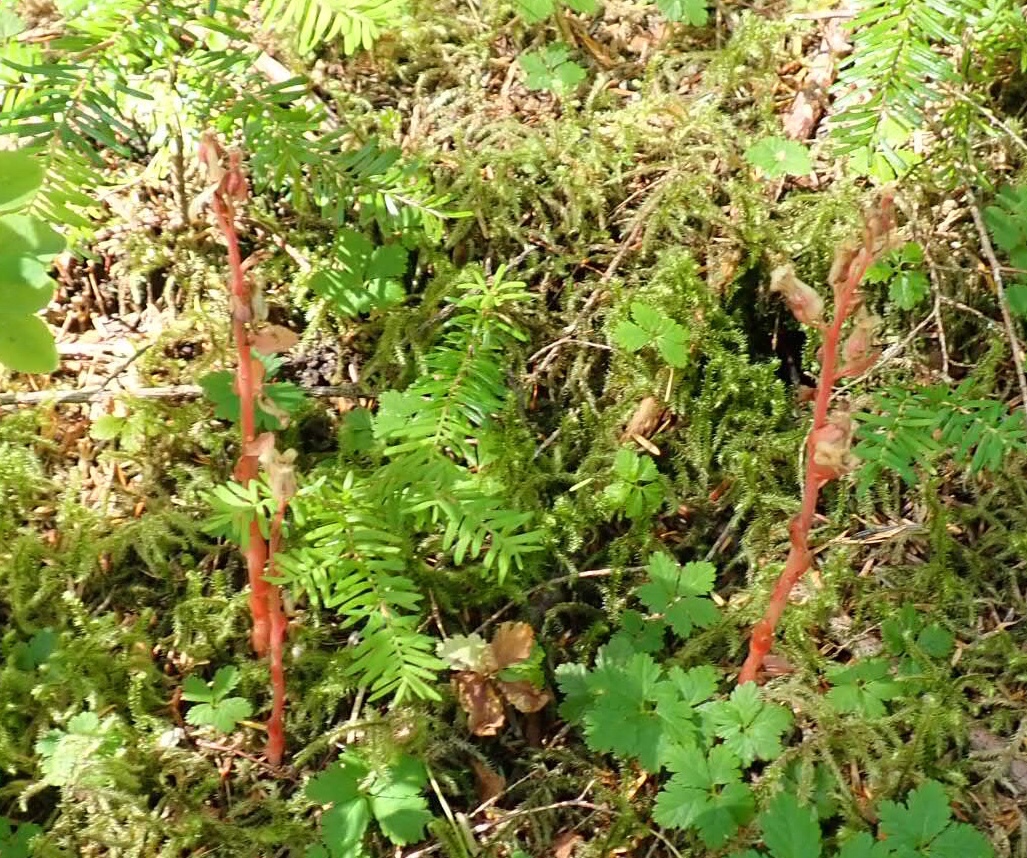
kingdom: Plantae
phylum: Tracheophyta
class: Magnoliopsida
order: Ericales
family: Ericaceae
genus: Hypopitys
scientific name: Hypopitys monotropa
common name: Yellow bird's-nest
